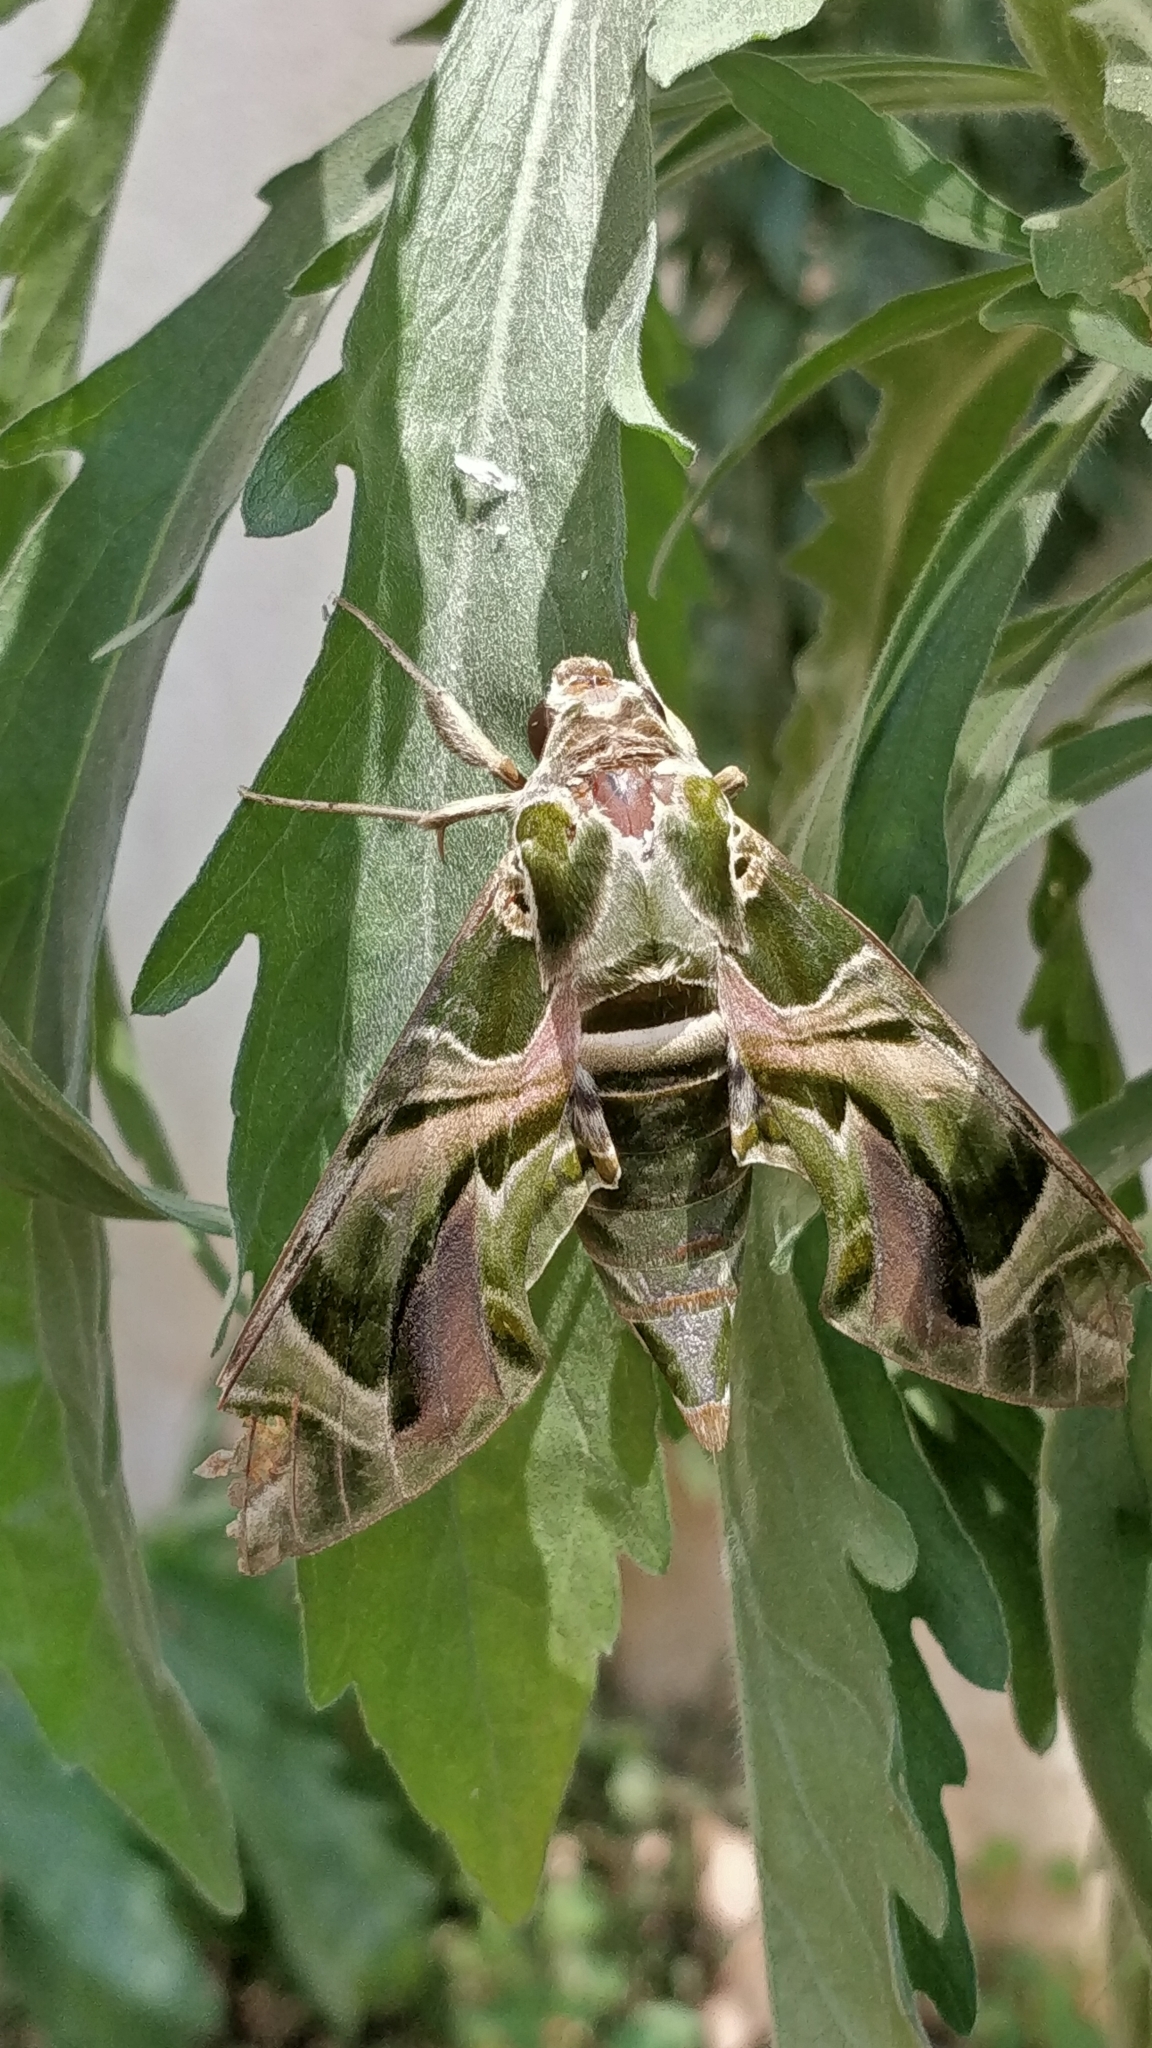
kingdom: Animalia
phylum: Arthropoda
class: Insecta
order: Lepidoptera
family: Sphingidae
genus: Daphnis
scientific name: Daphnis nerii
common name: Oleander hawk-moth
